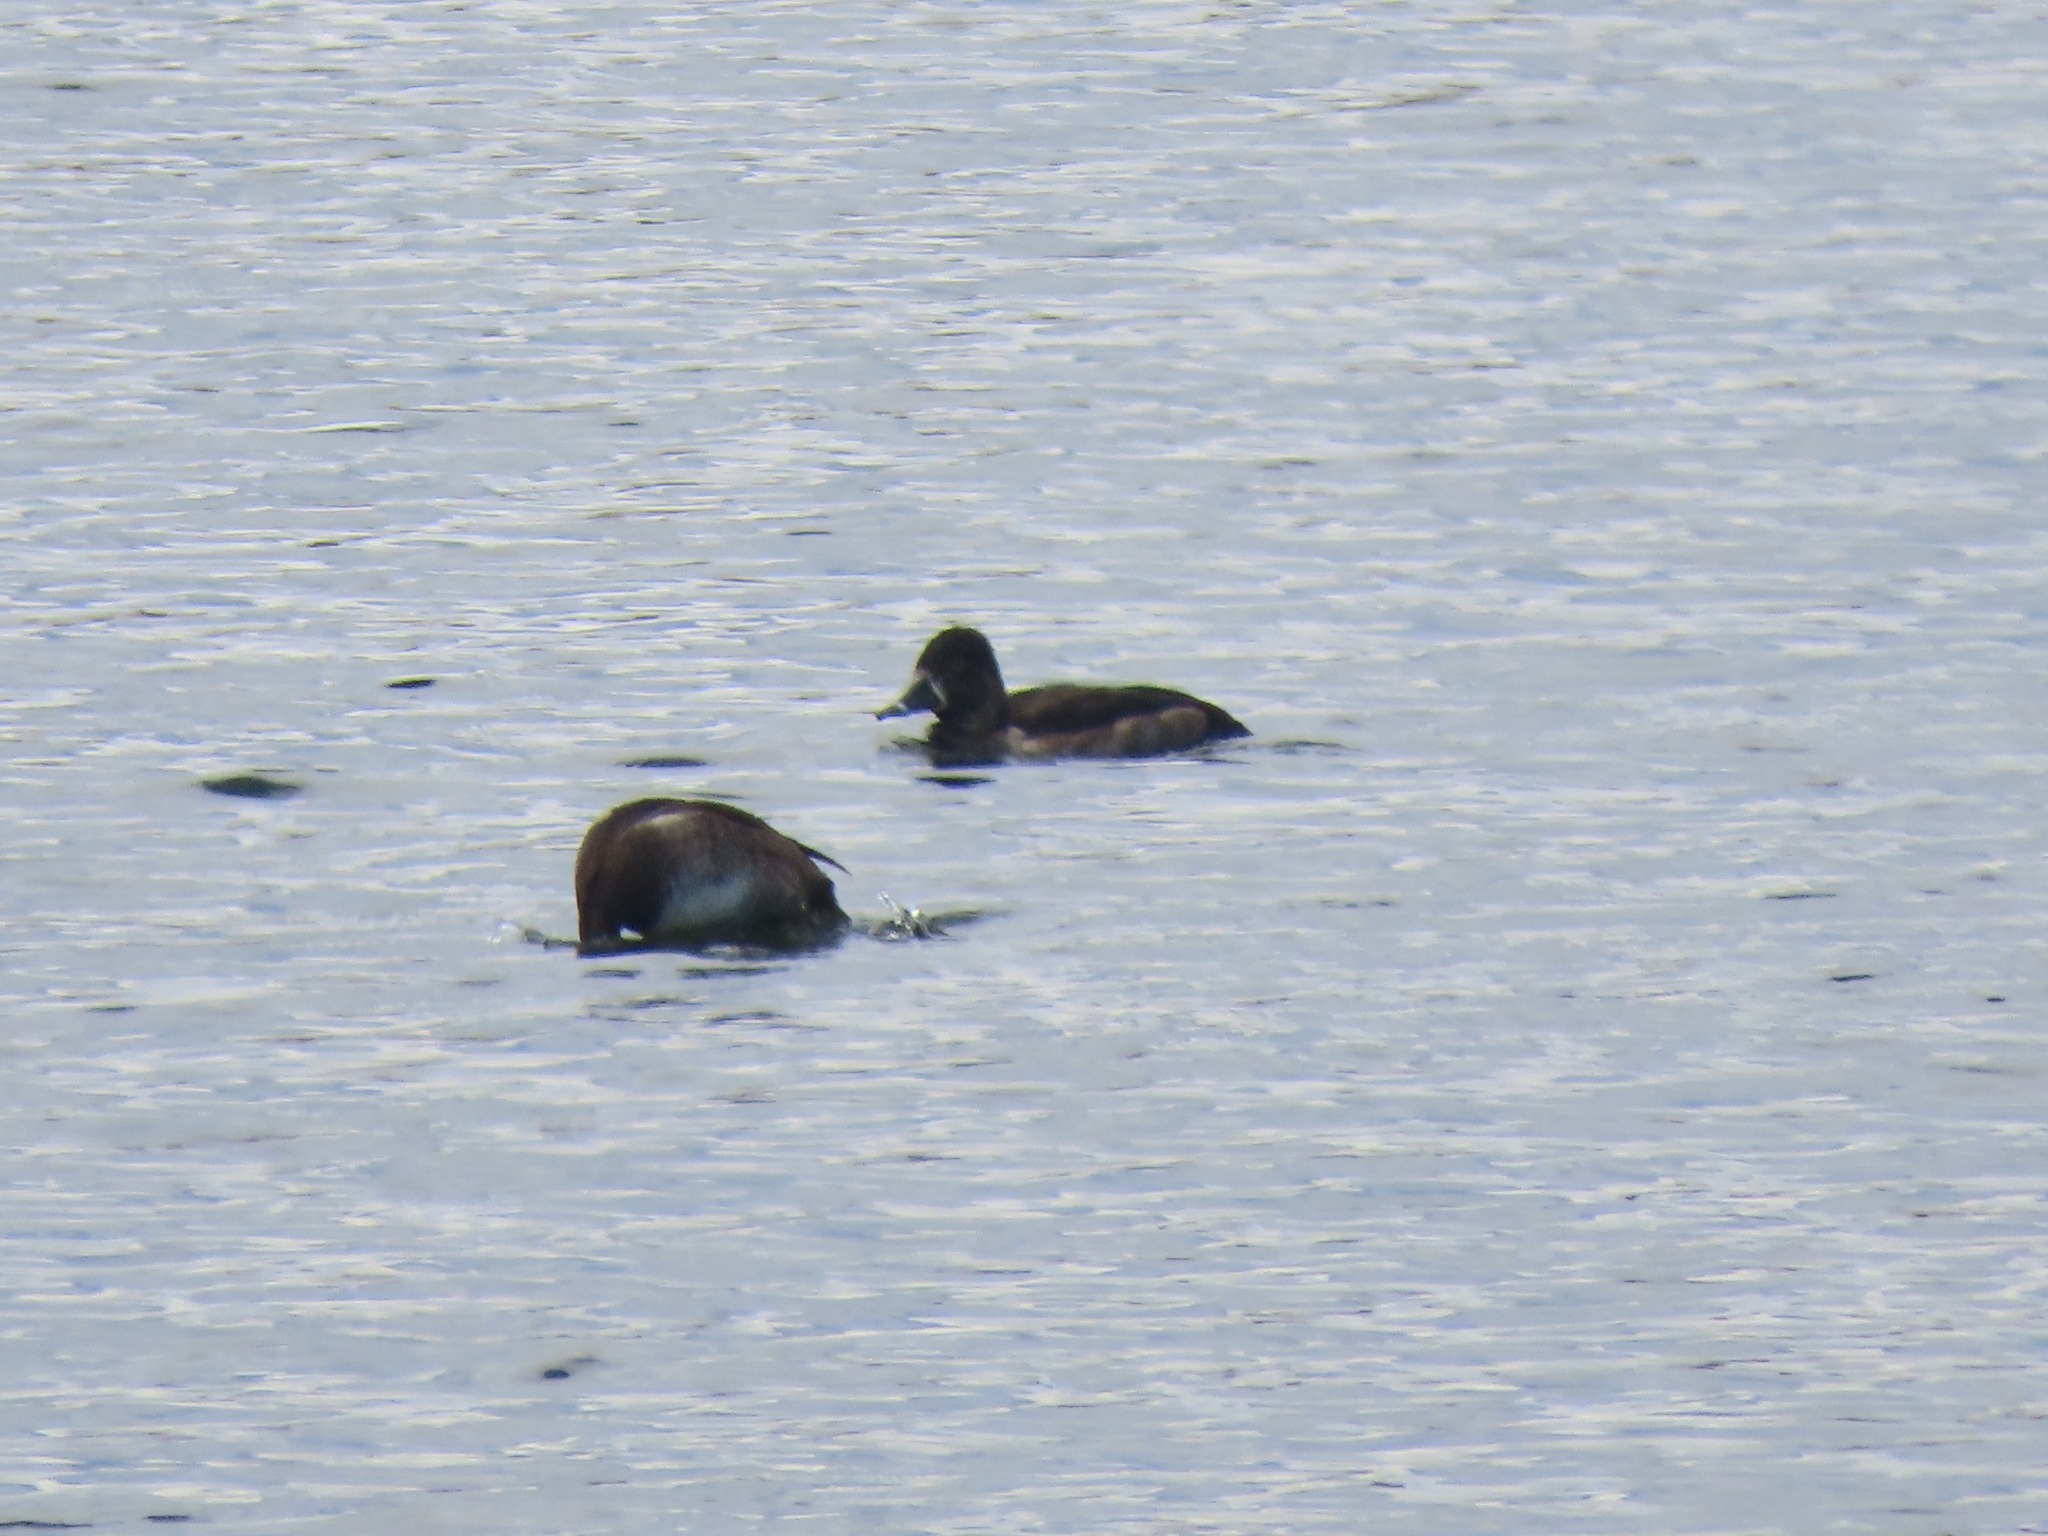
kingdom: Animalia
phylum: Chordata
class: Aves
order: Anseriformes
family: Anatidae
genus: Aythya
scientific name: Aythya collaris
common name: Ring-necked duck
